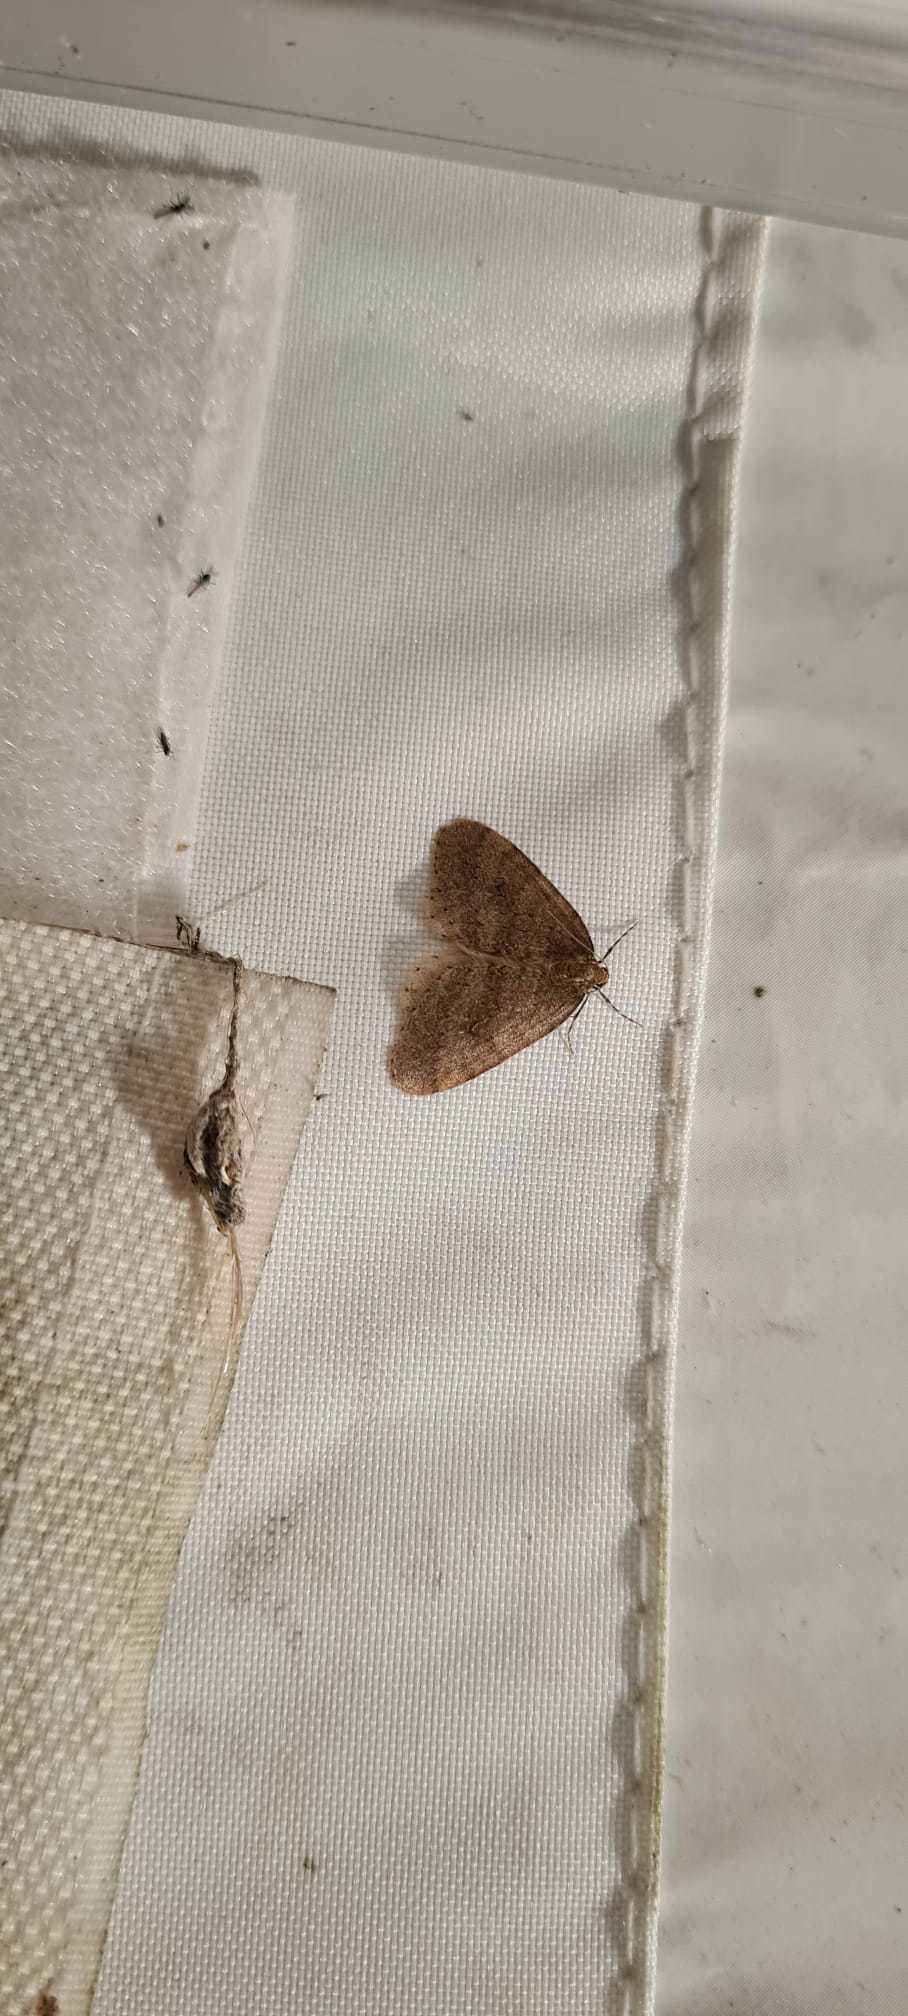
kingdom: Animalia
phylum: Arthropoda
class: Insecta
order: Lepidoptera
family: Geometridae
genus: Operophtera
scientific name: Operophtera brumata
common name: Winter moth
